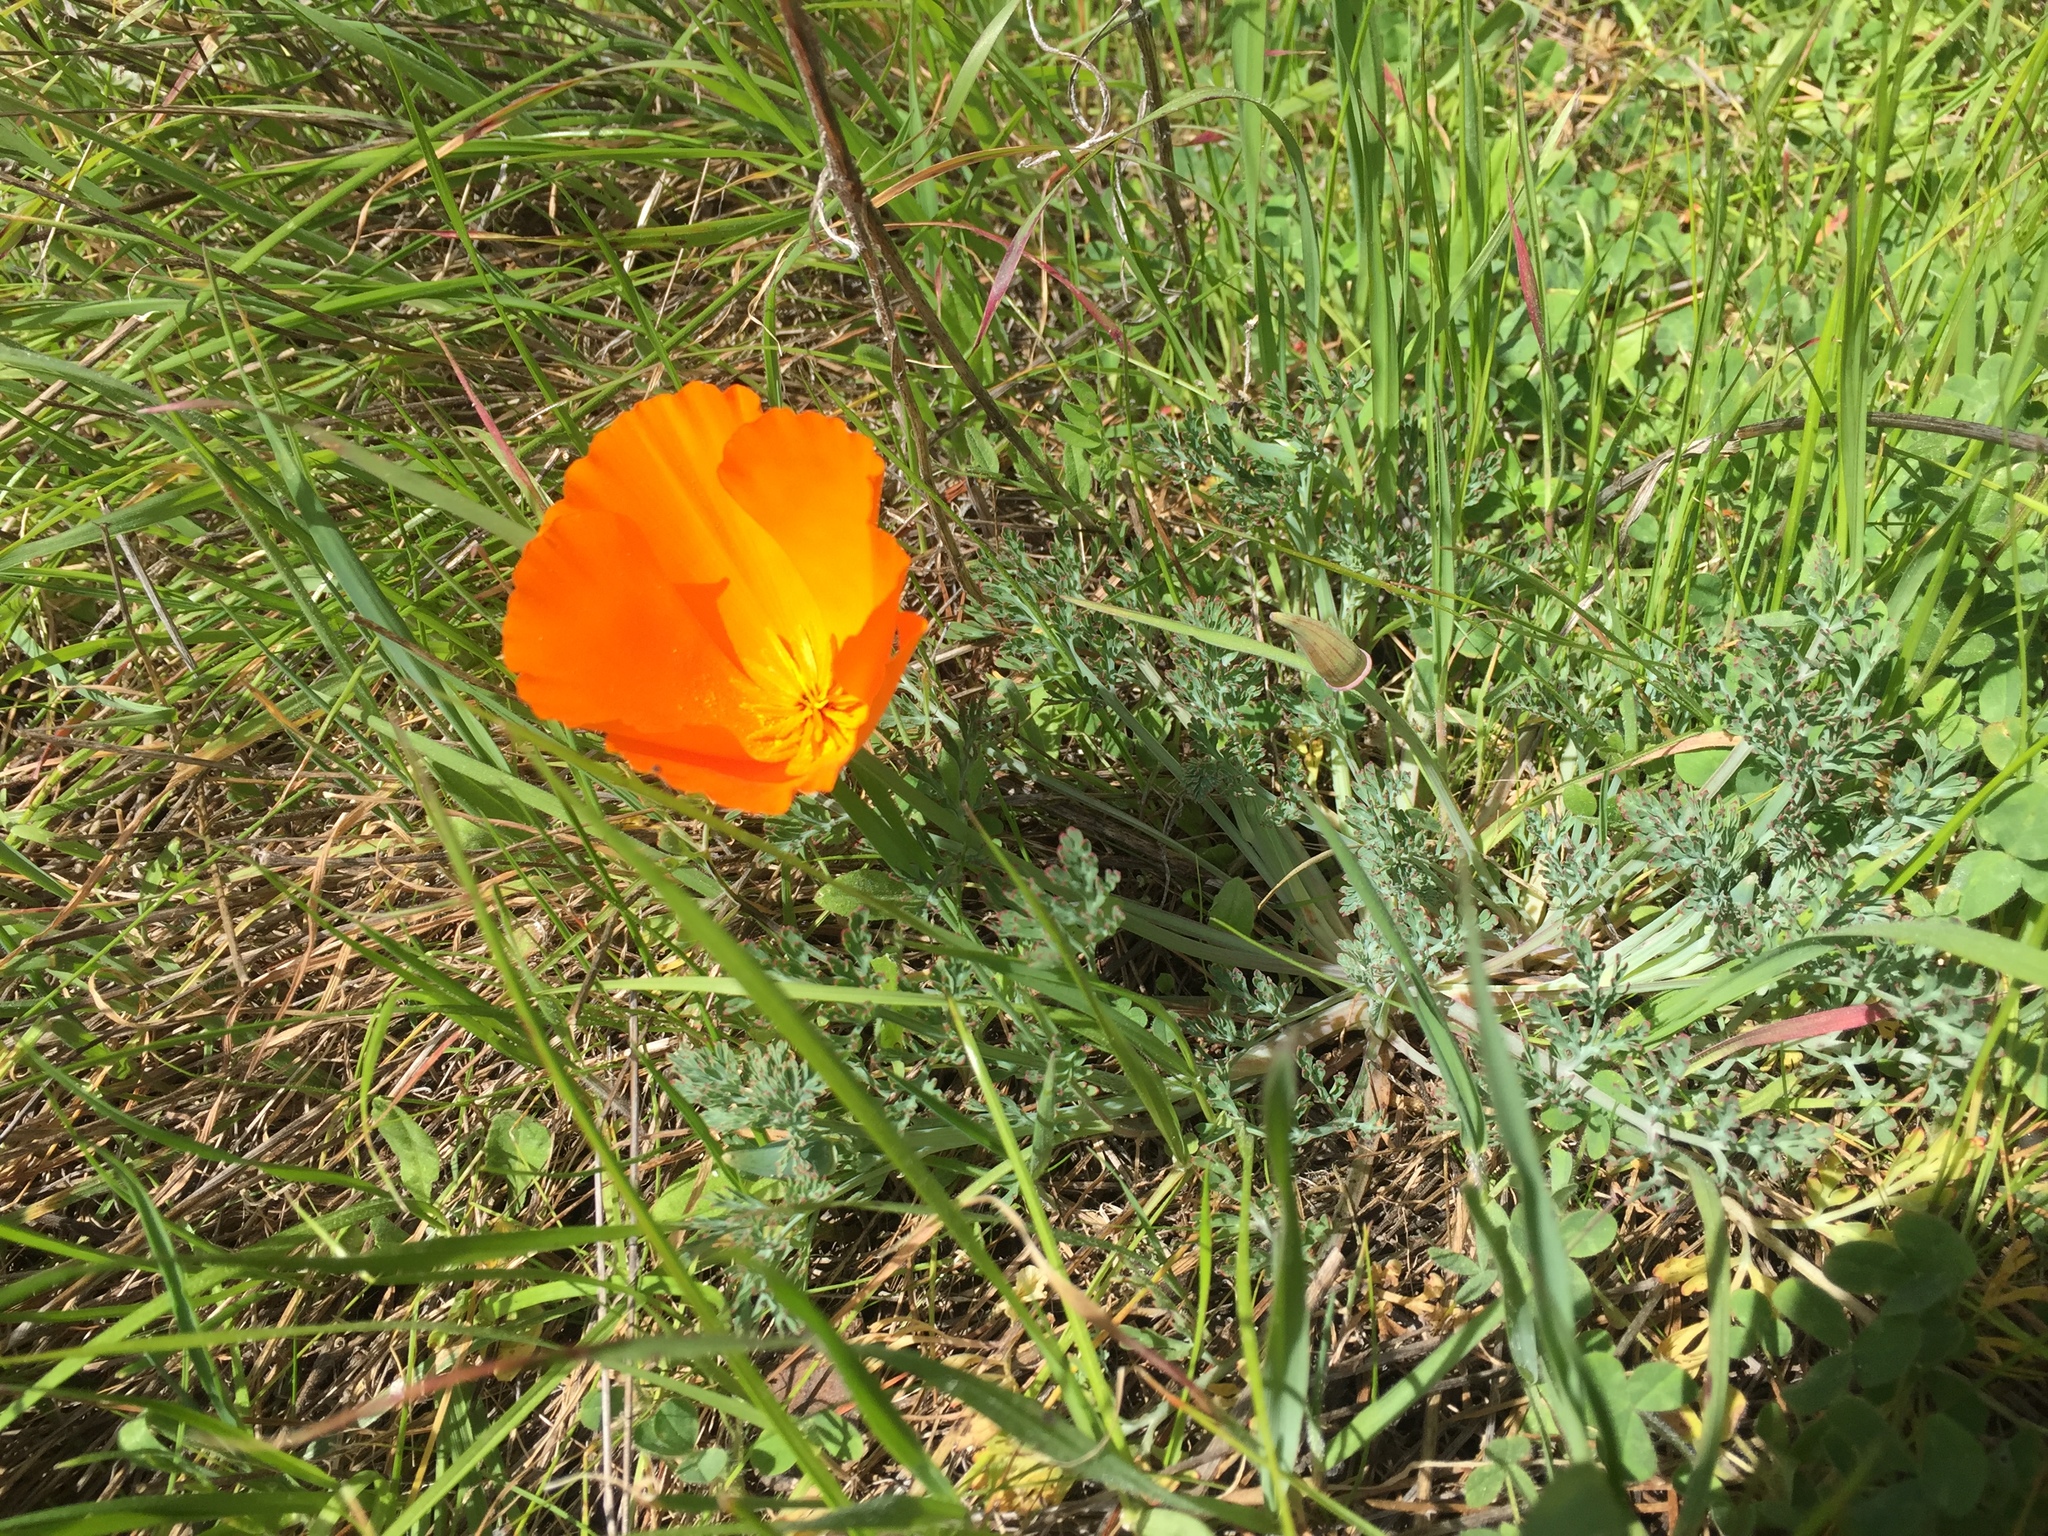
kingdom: Plantae
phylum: Tracheophyta
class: Magnoliopsida
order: Ranunculales
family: Papaveraceae
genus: Eschscholzia
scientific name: Eschscholzia californica
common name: California poppy
